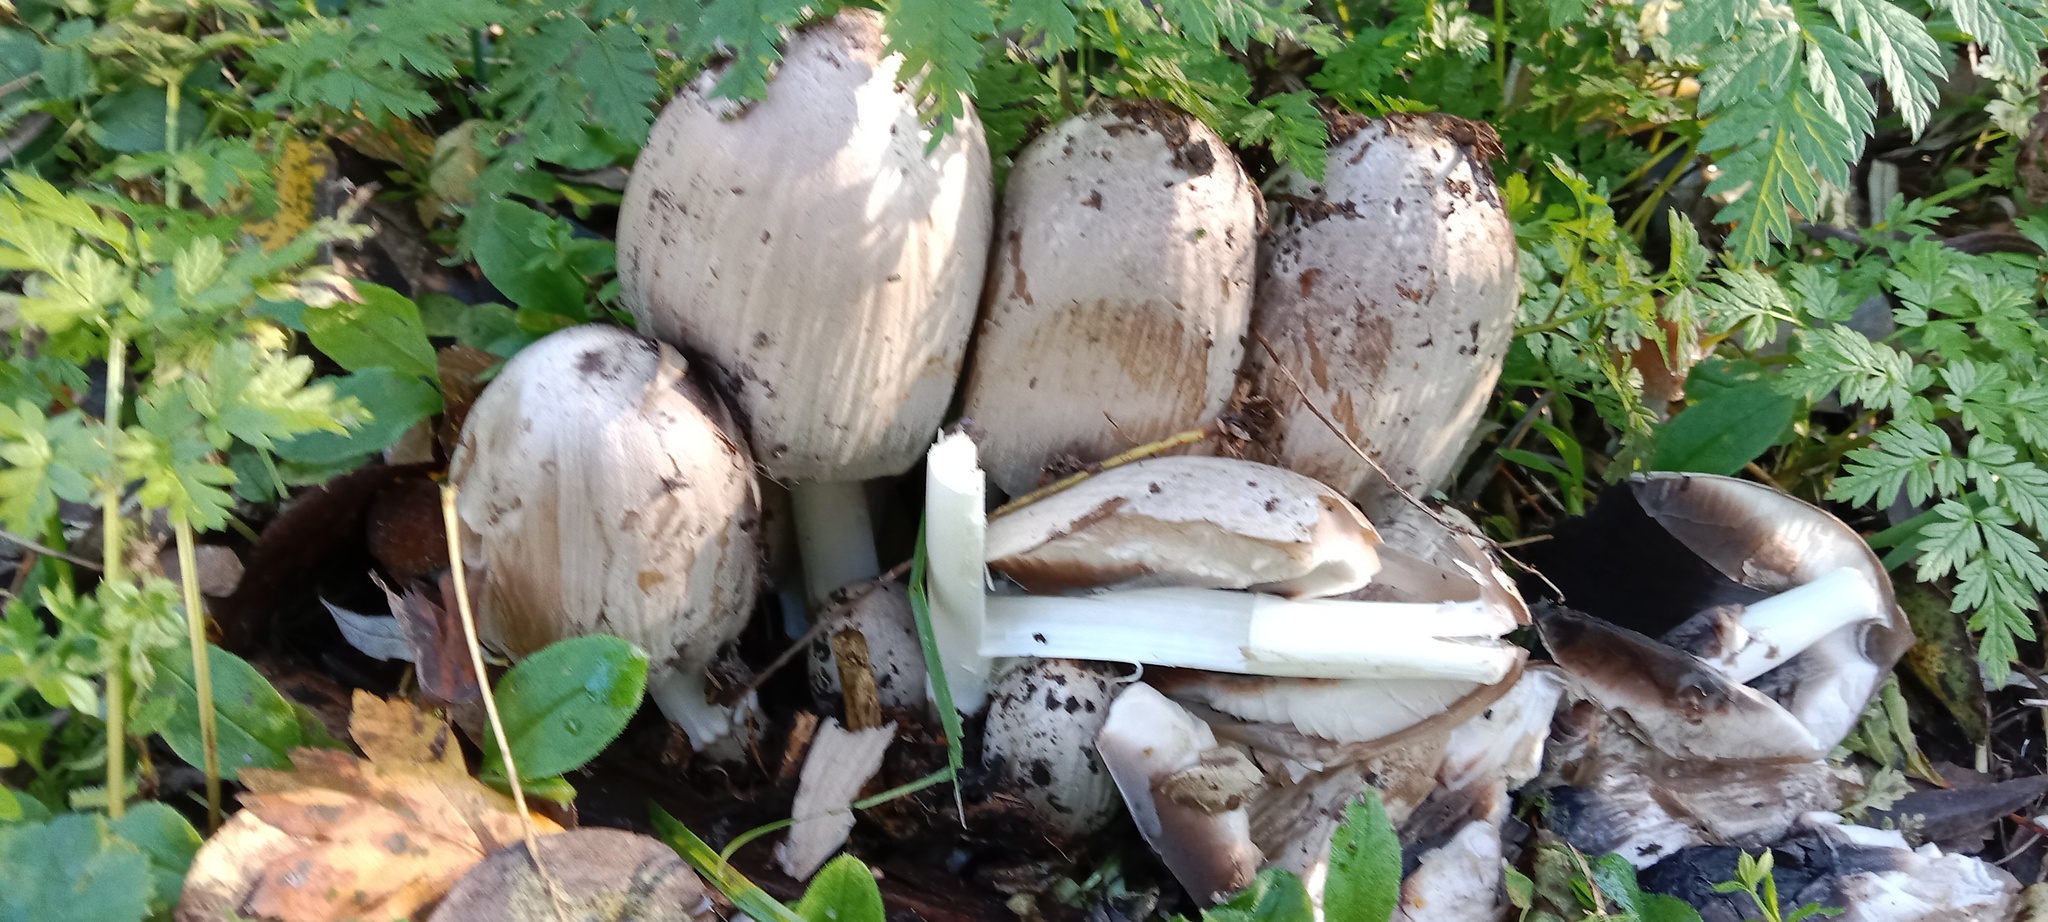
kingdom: Fungi
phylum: Basidiomycota
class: Agaricomycetes
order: Agaricales
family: Psathyrellaceae
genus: Coprinopsis
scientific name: Coprinopsis atramentaria
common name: Common ink-cap
